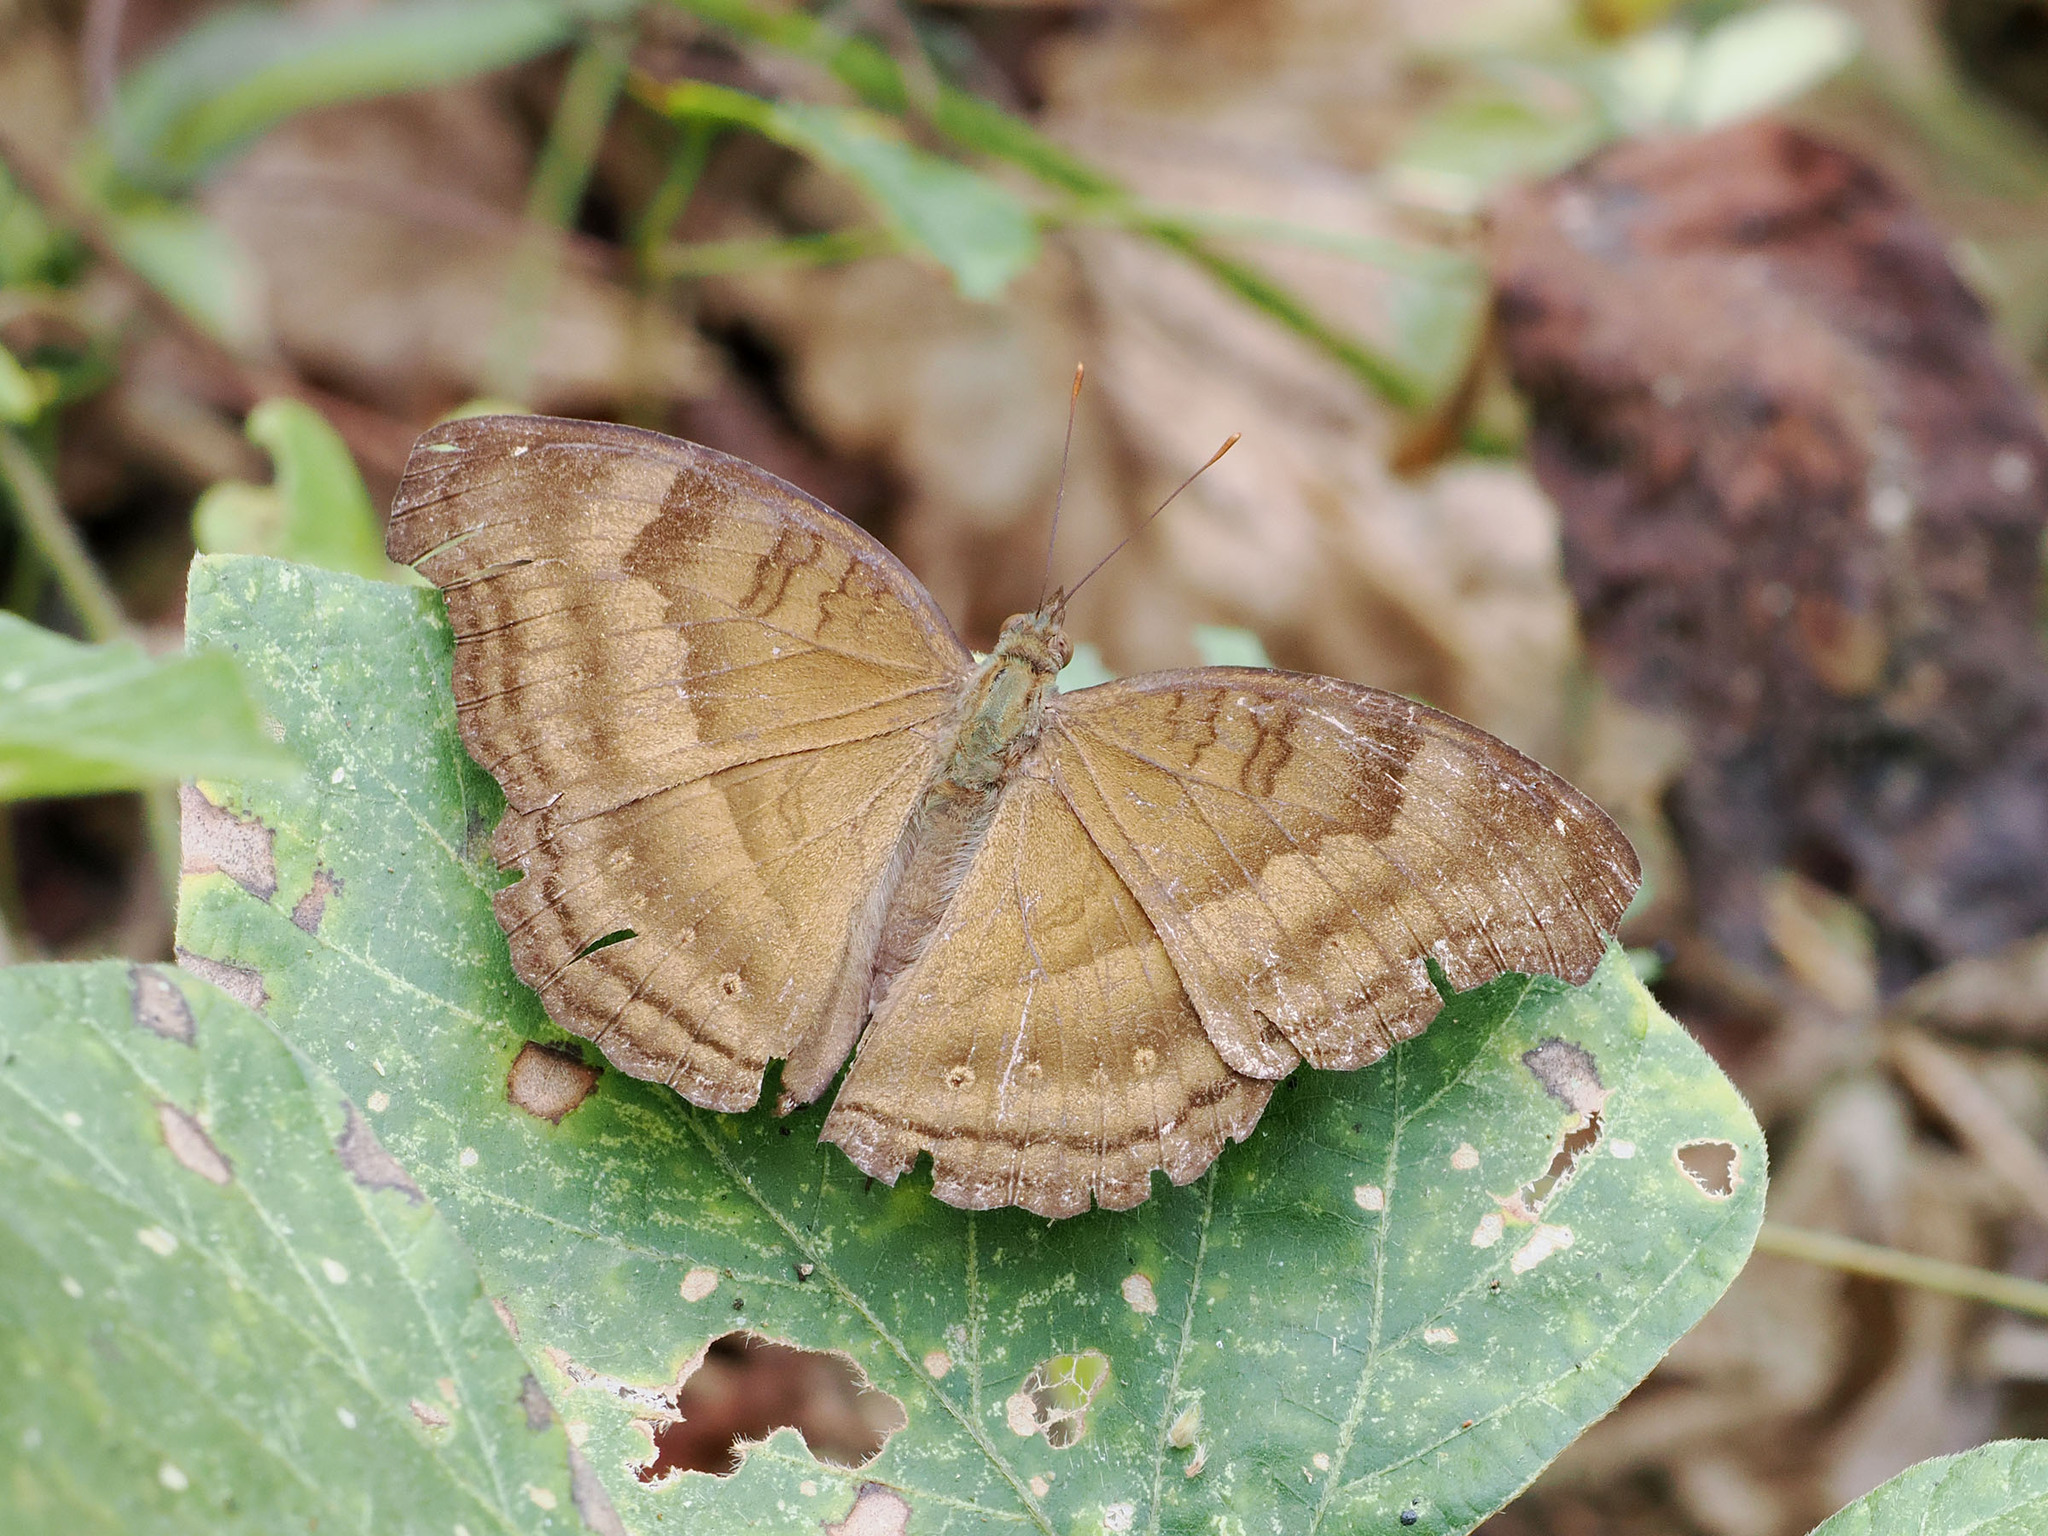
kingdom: Animalia
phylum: Arthropoda
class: Insecta
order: Lepidoptera
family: Nymphalidae
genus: Junonia
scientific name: Junonia iphita
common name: Chocolate pansy
